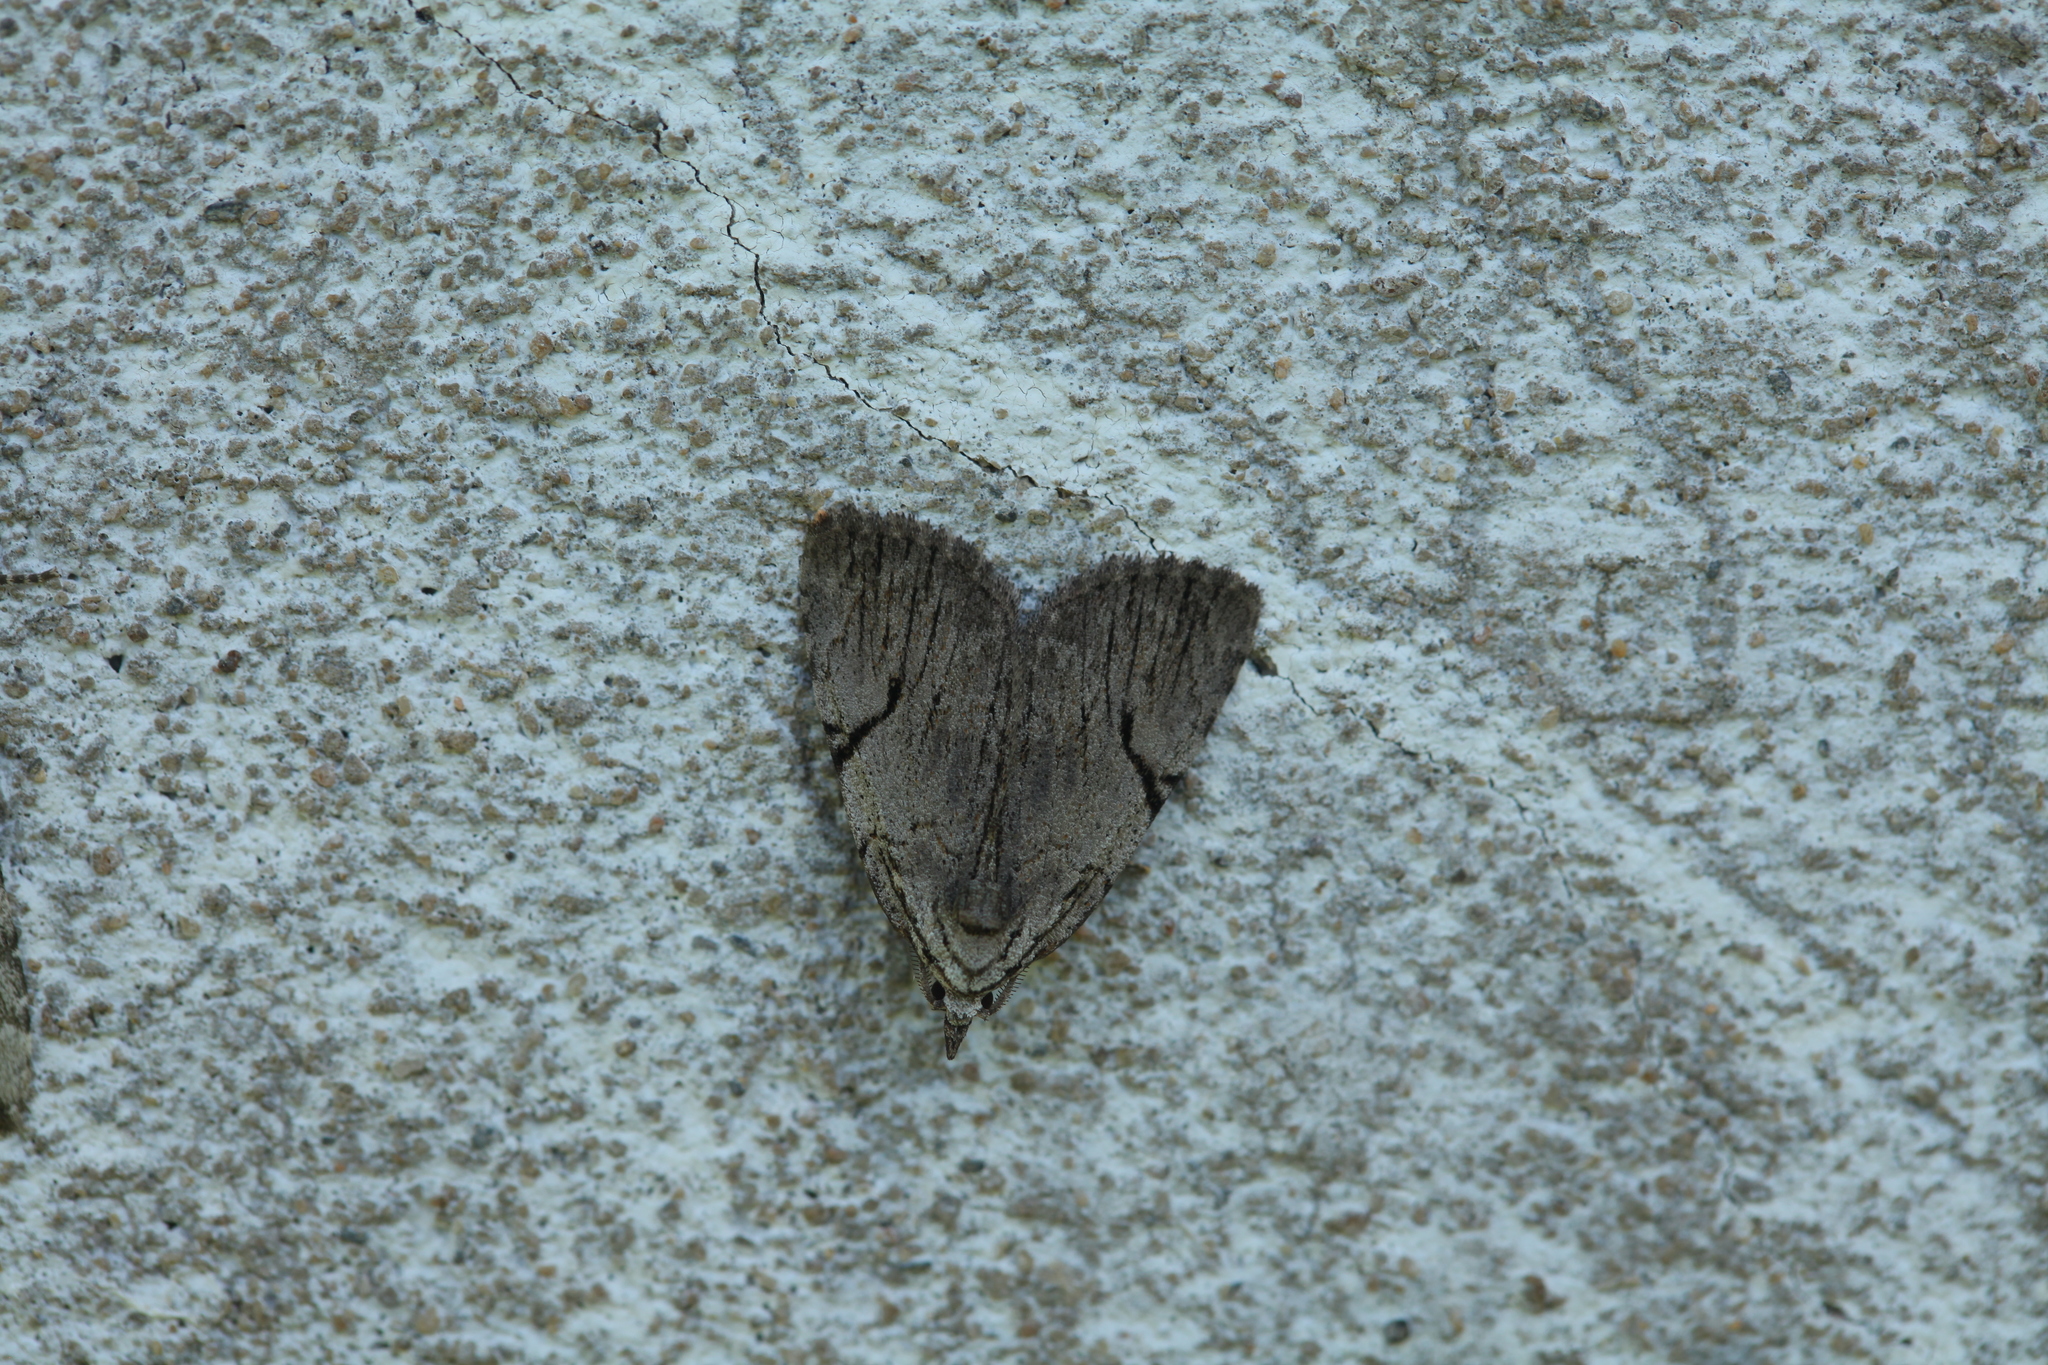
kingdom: Animalia
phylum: Arthropoda
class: Insecta
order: Lepidoptera
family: Noctuidae
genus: Balsa
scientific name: Balsa malana
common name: Many-dotted appleworm moth
